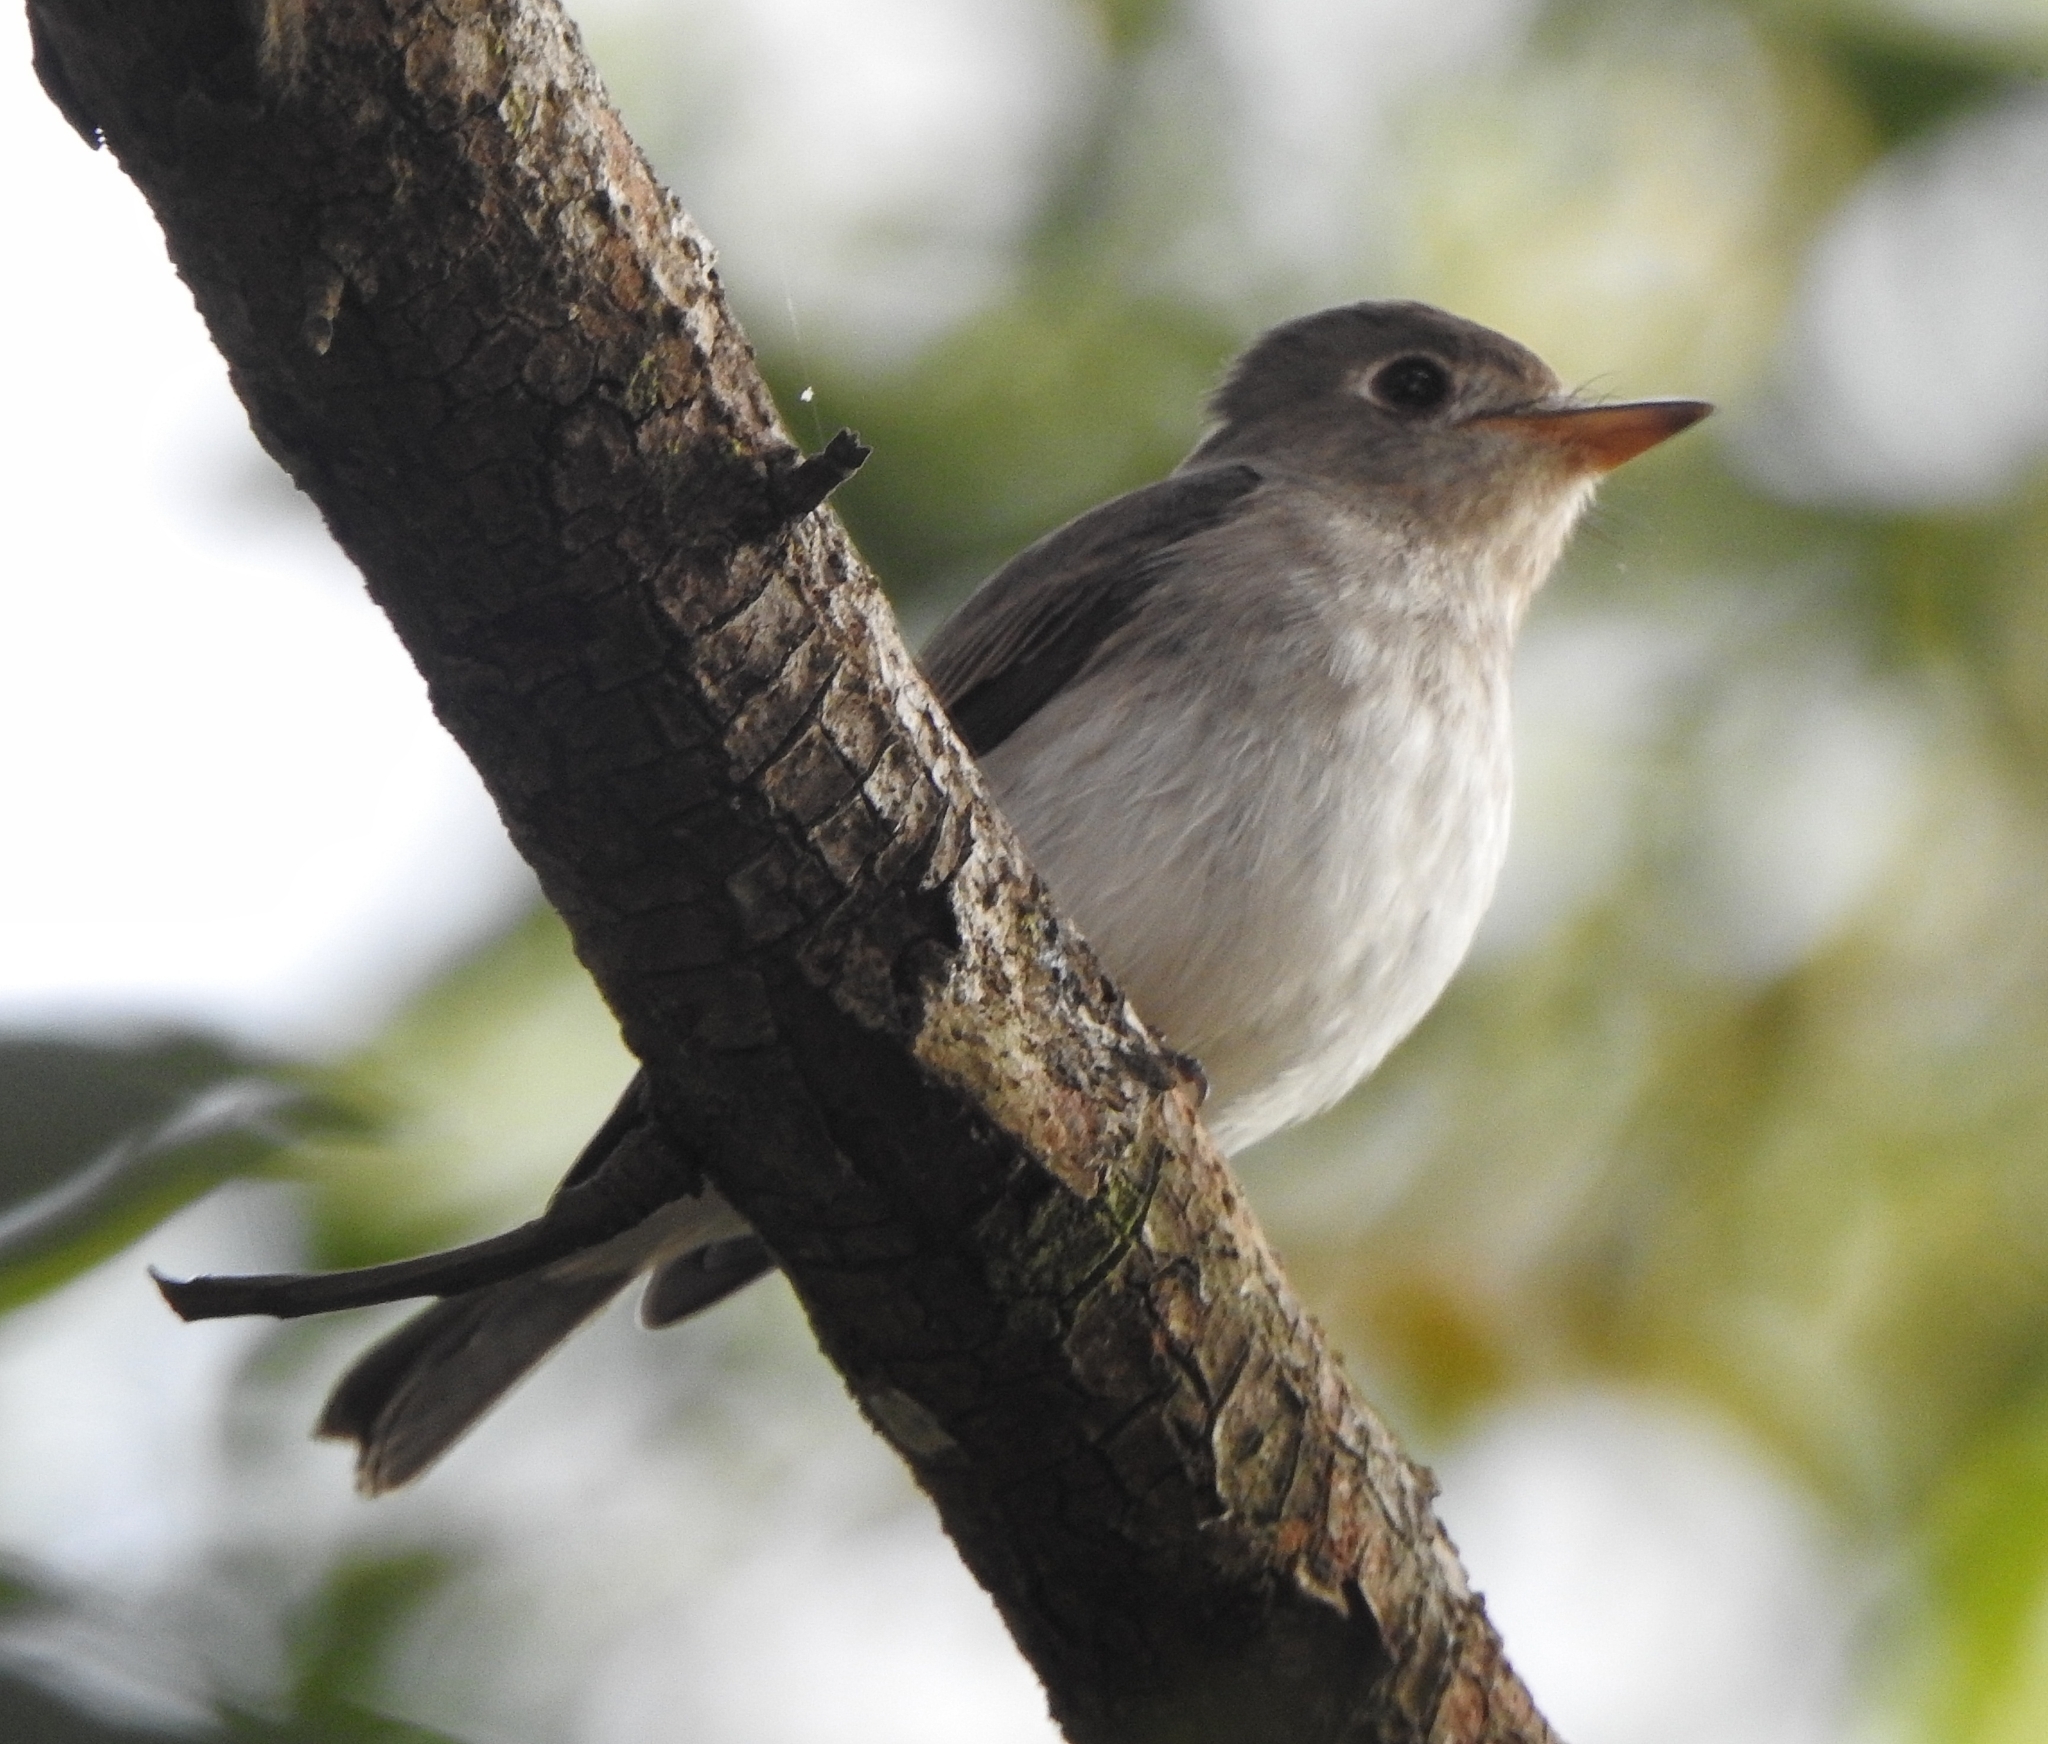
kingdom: Animalia
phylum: Chordata
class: Aves
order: Passeriformes
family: Muscicapidae
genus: Muscicapa
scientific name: Muscicapa latirostris
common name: Asian brown flycatcher
